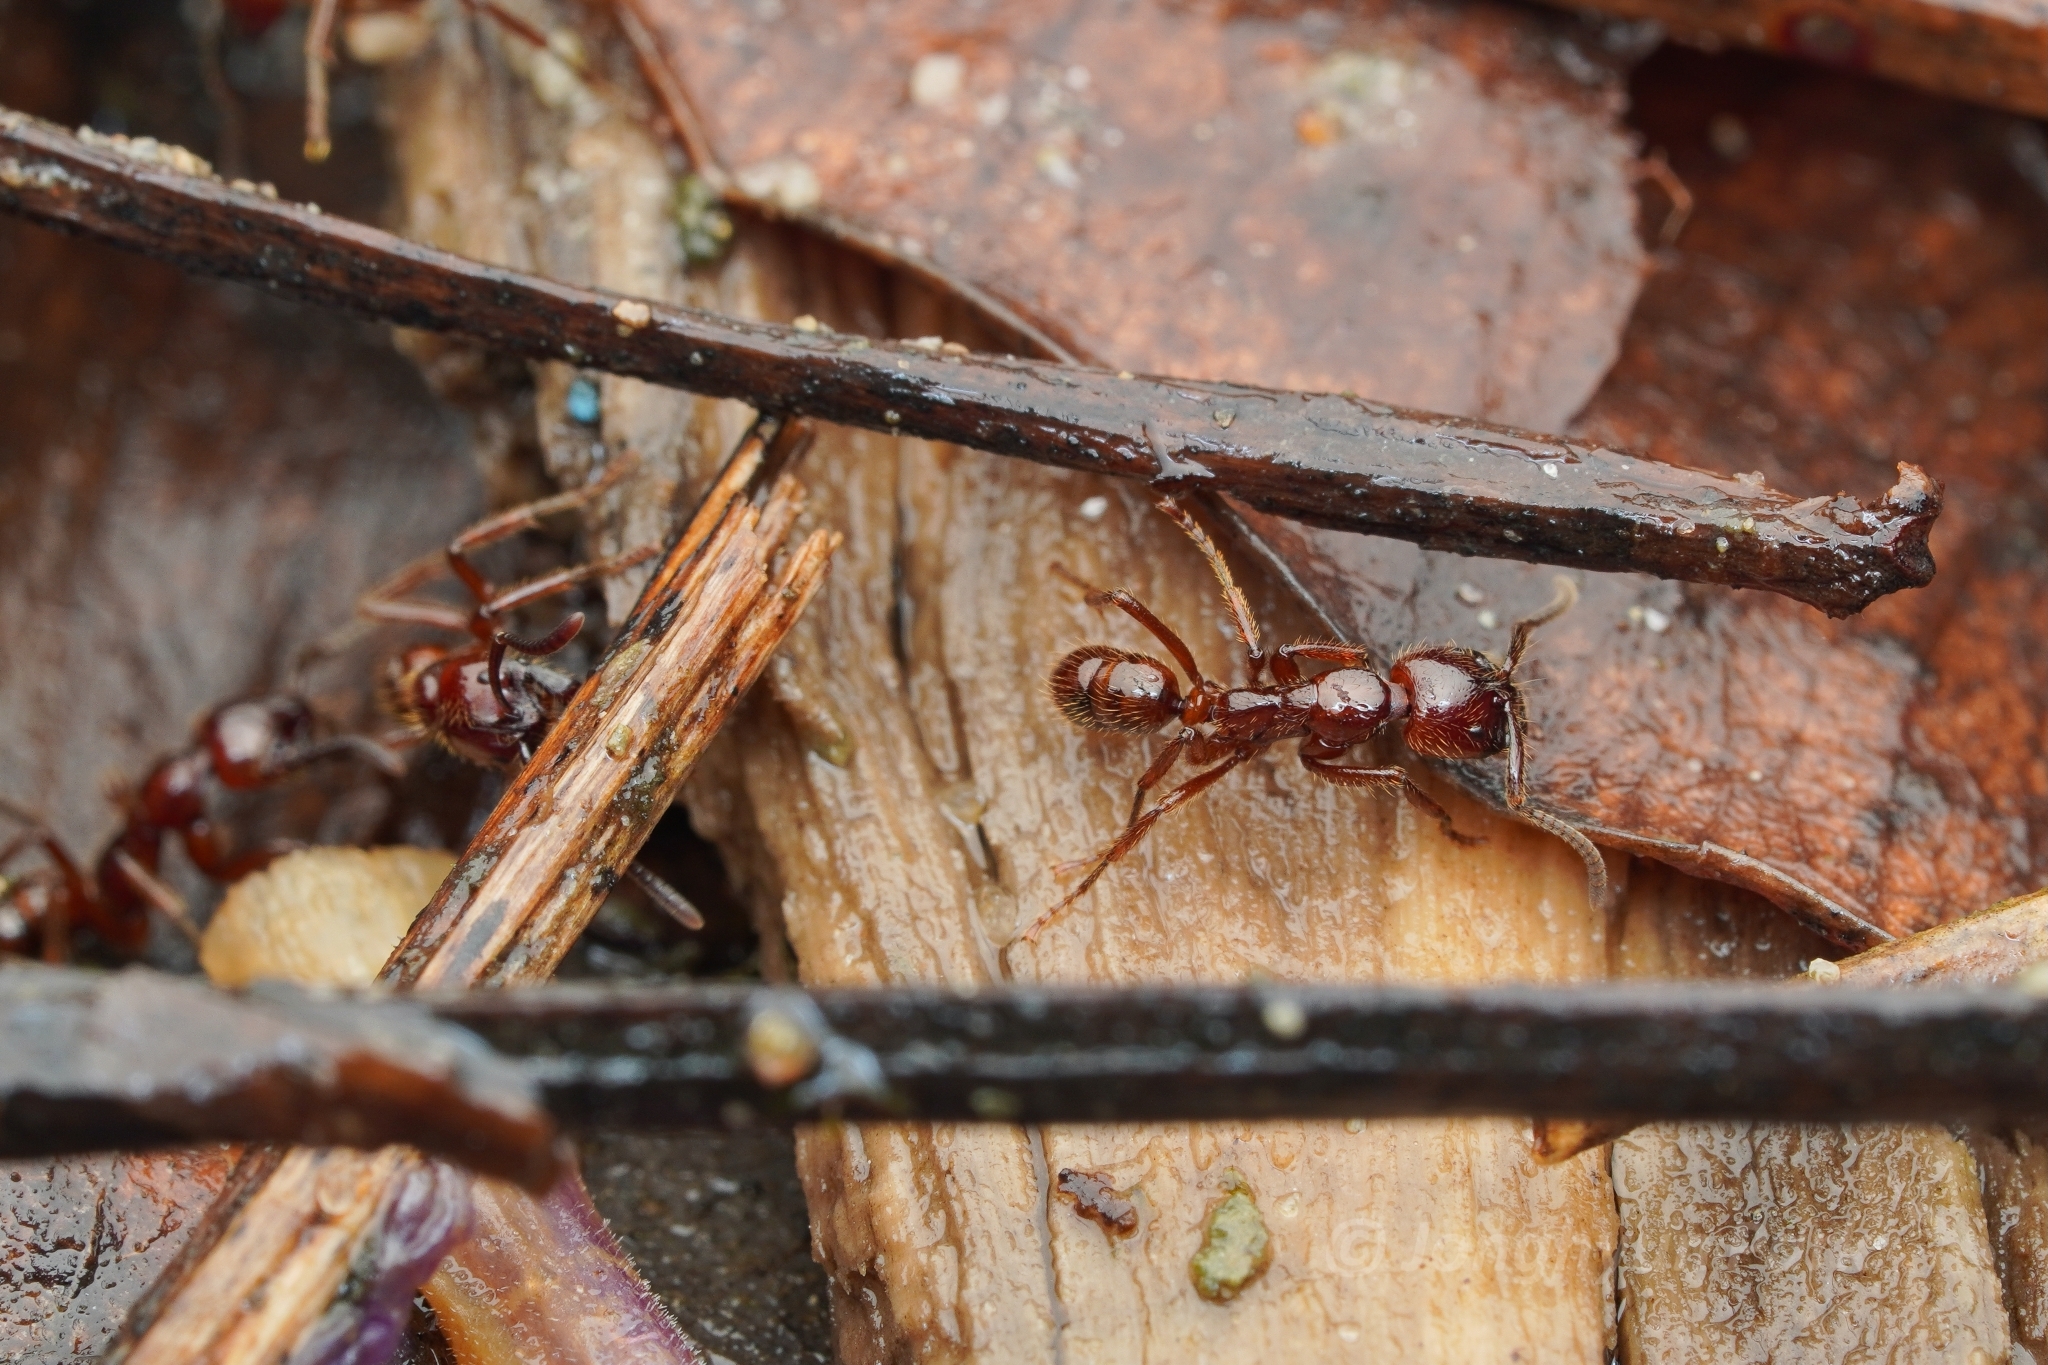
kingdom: Animalia
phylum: Arthropoda
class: Insecta
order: Hymenoptera
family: Formicidae
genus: Leptogenys
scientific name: Leptogenys birmana
